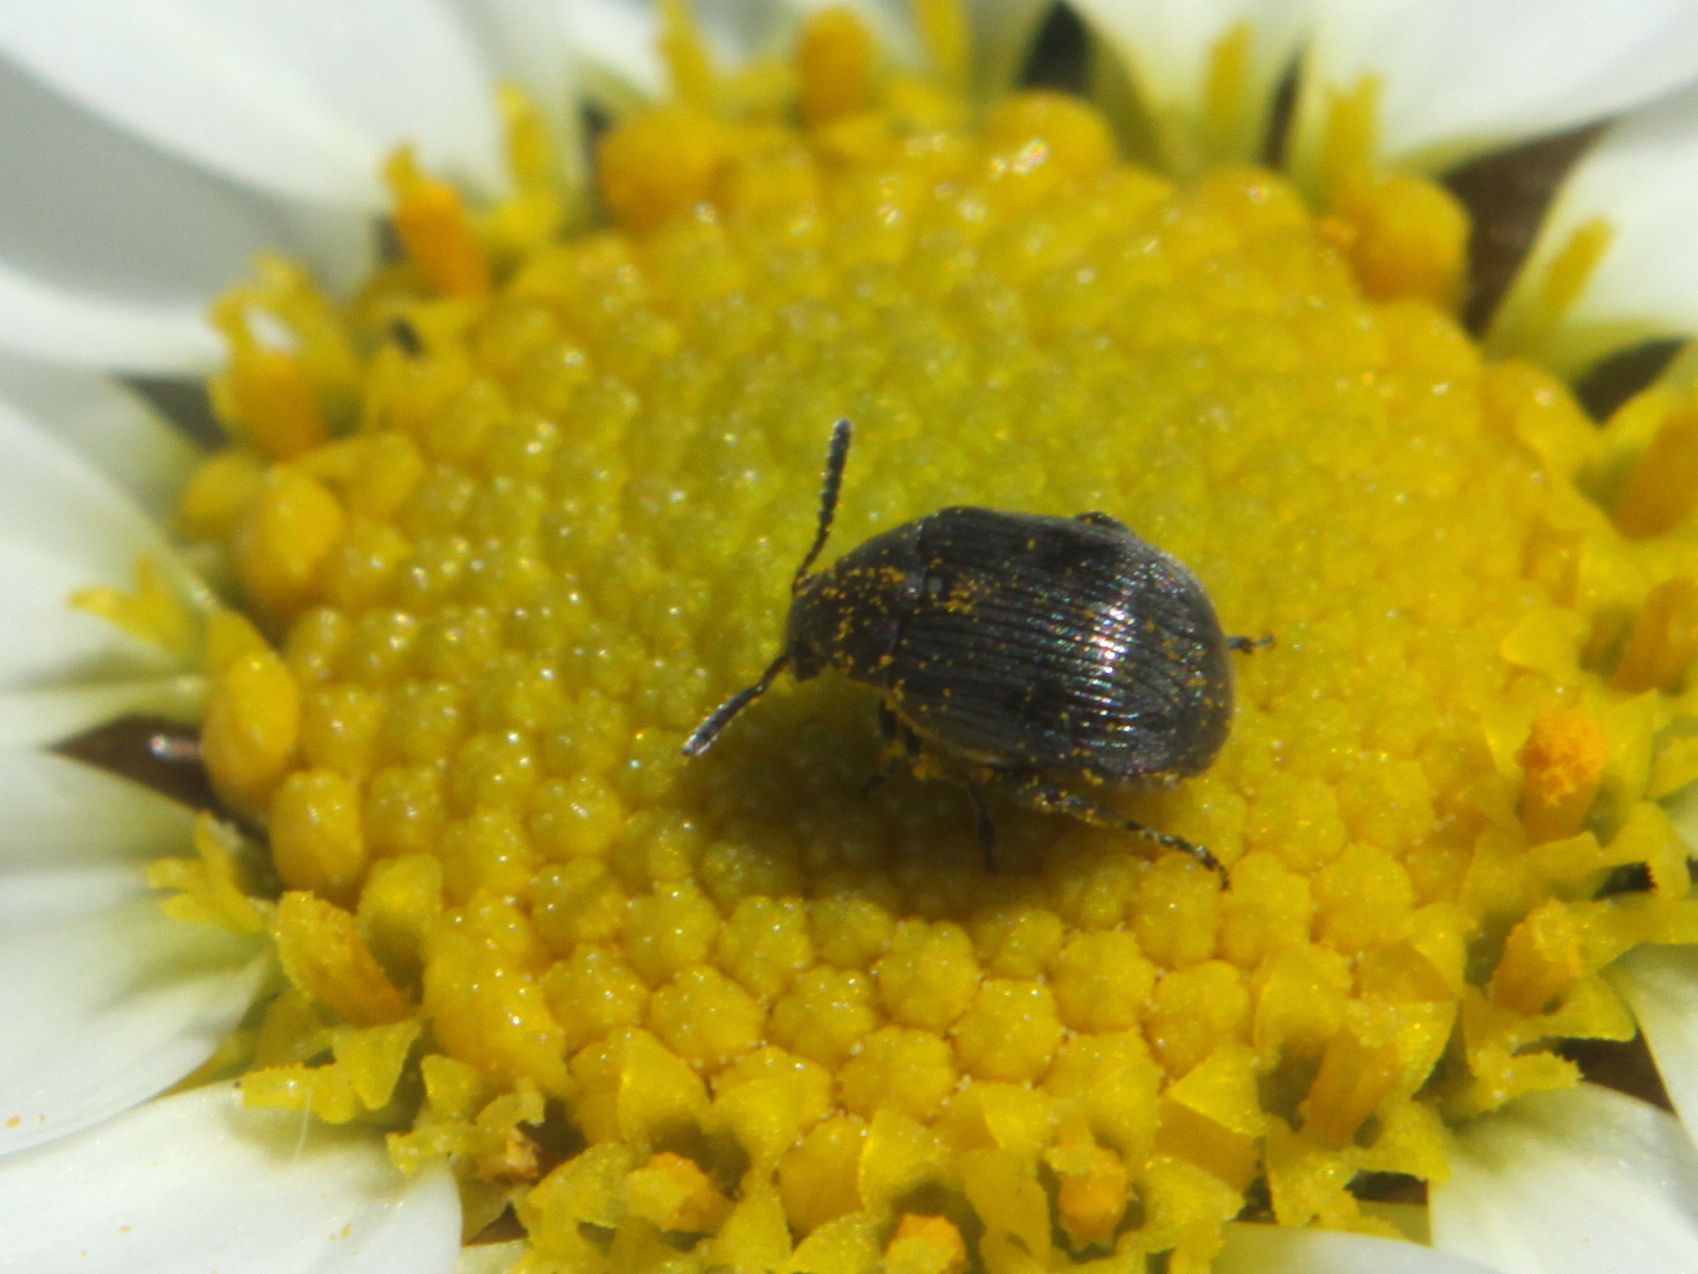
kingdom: Animalia
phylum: Arthropoda
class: Insecta
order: Coleoptera
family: Chrysomelidae
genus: Bruchidius
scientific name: Bruchidius villosus
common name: Scotch broom bruchid
